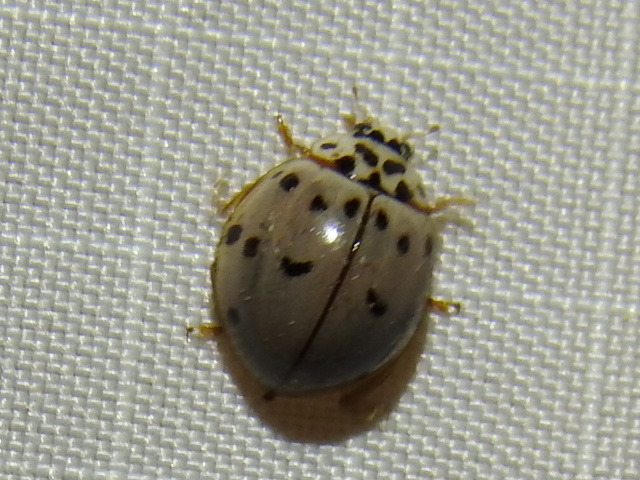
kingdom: Animalia
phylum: Arthropoda
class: Insecta
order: Coleoptera
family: Coccinellidae
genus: Olla
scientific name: Olla v-nigrum
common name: Ashy gray lady beetle
